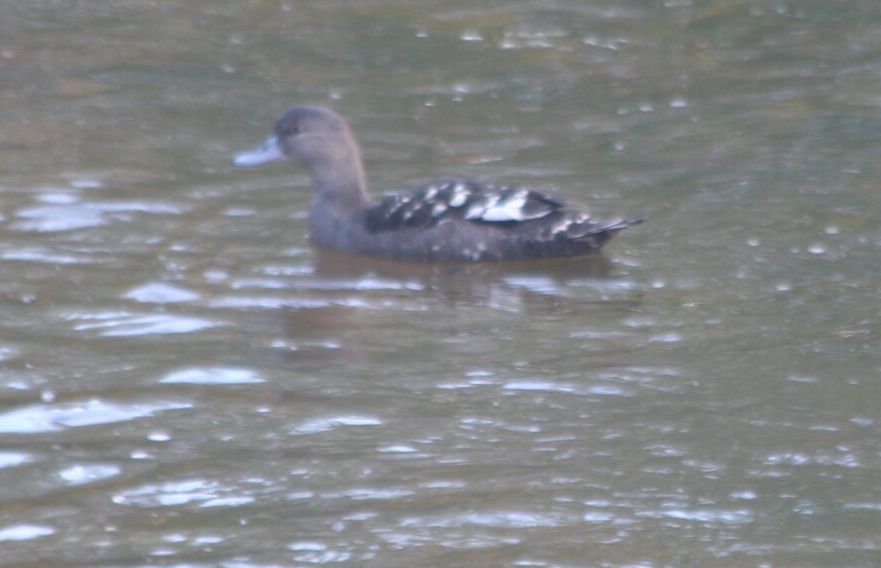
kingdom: Animalia
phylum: Chordata
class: Aves
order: Anseriformes
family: Anatidae
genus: Anas
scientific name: Anas sparsa
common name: African black duck
